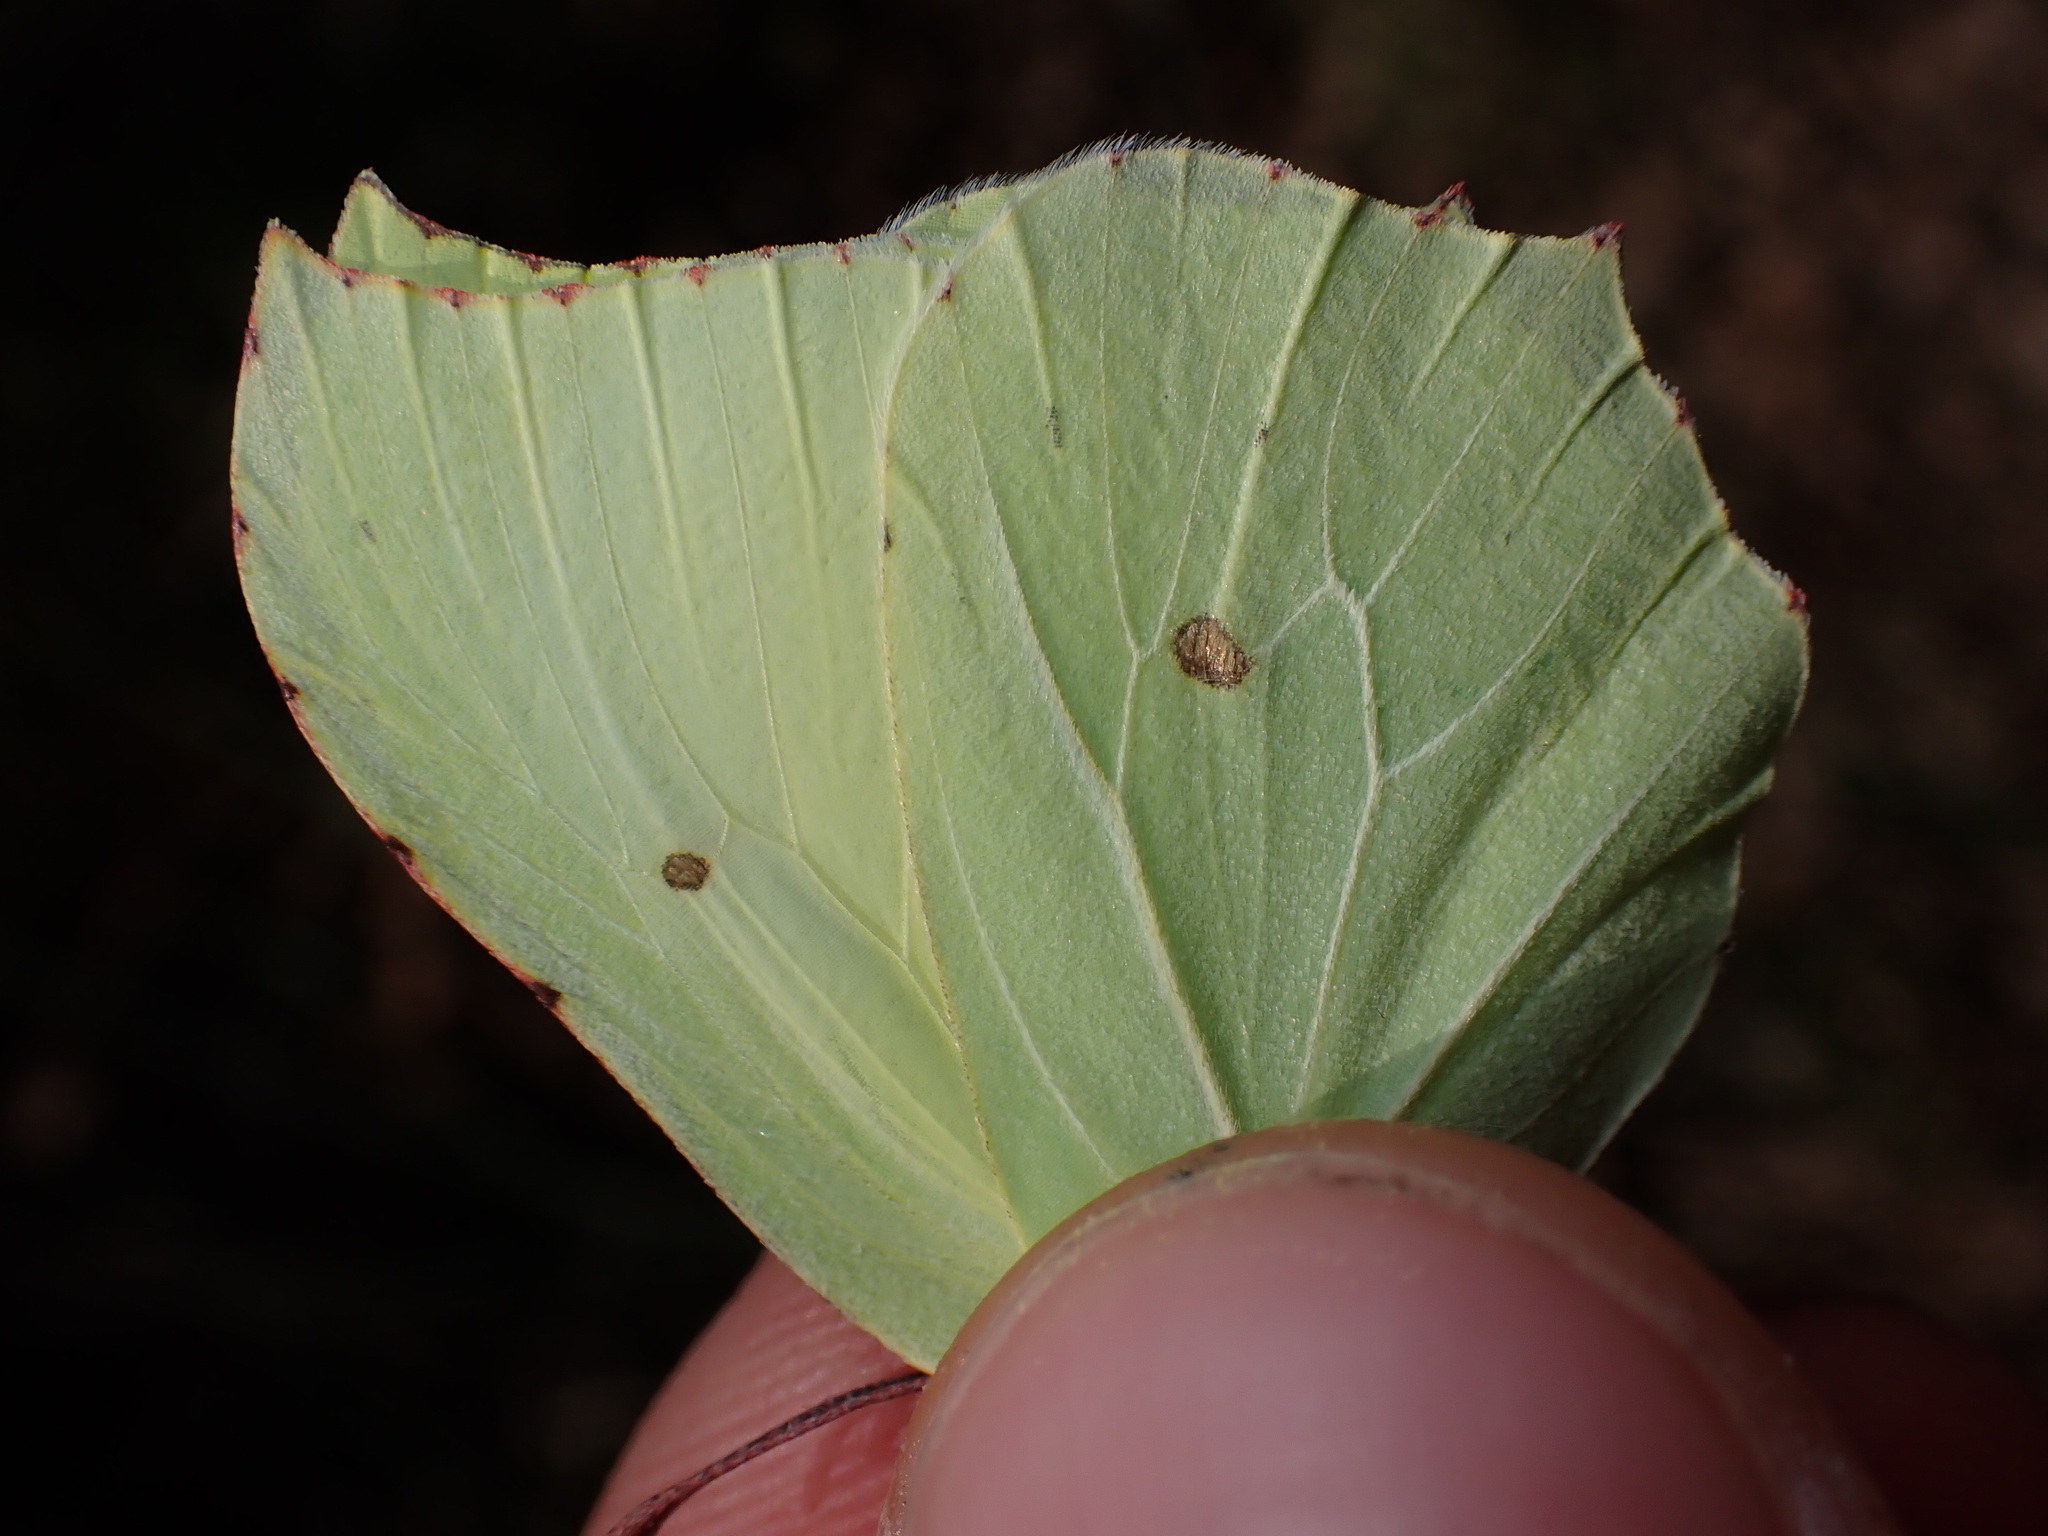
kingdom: Animalia
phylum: Arthropoda
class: Insecta
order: Lepidoptera
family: Pieridae
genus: Gonepteryx
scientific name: Gonepteryx rhamni
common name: Brimstone
